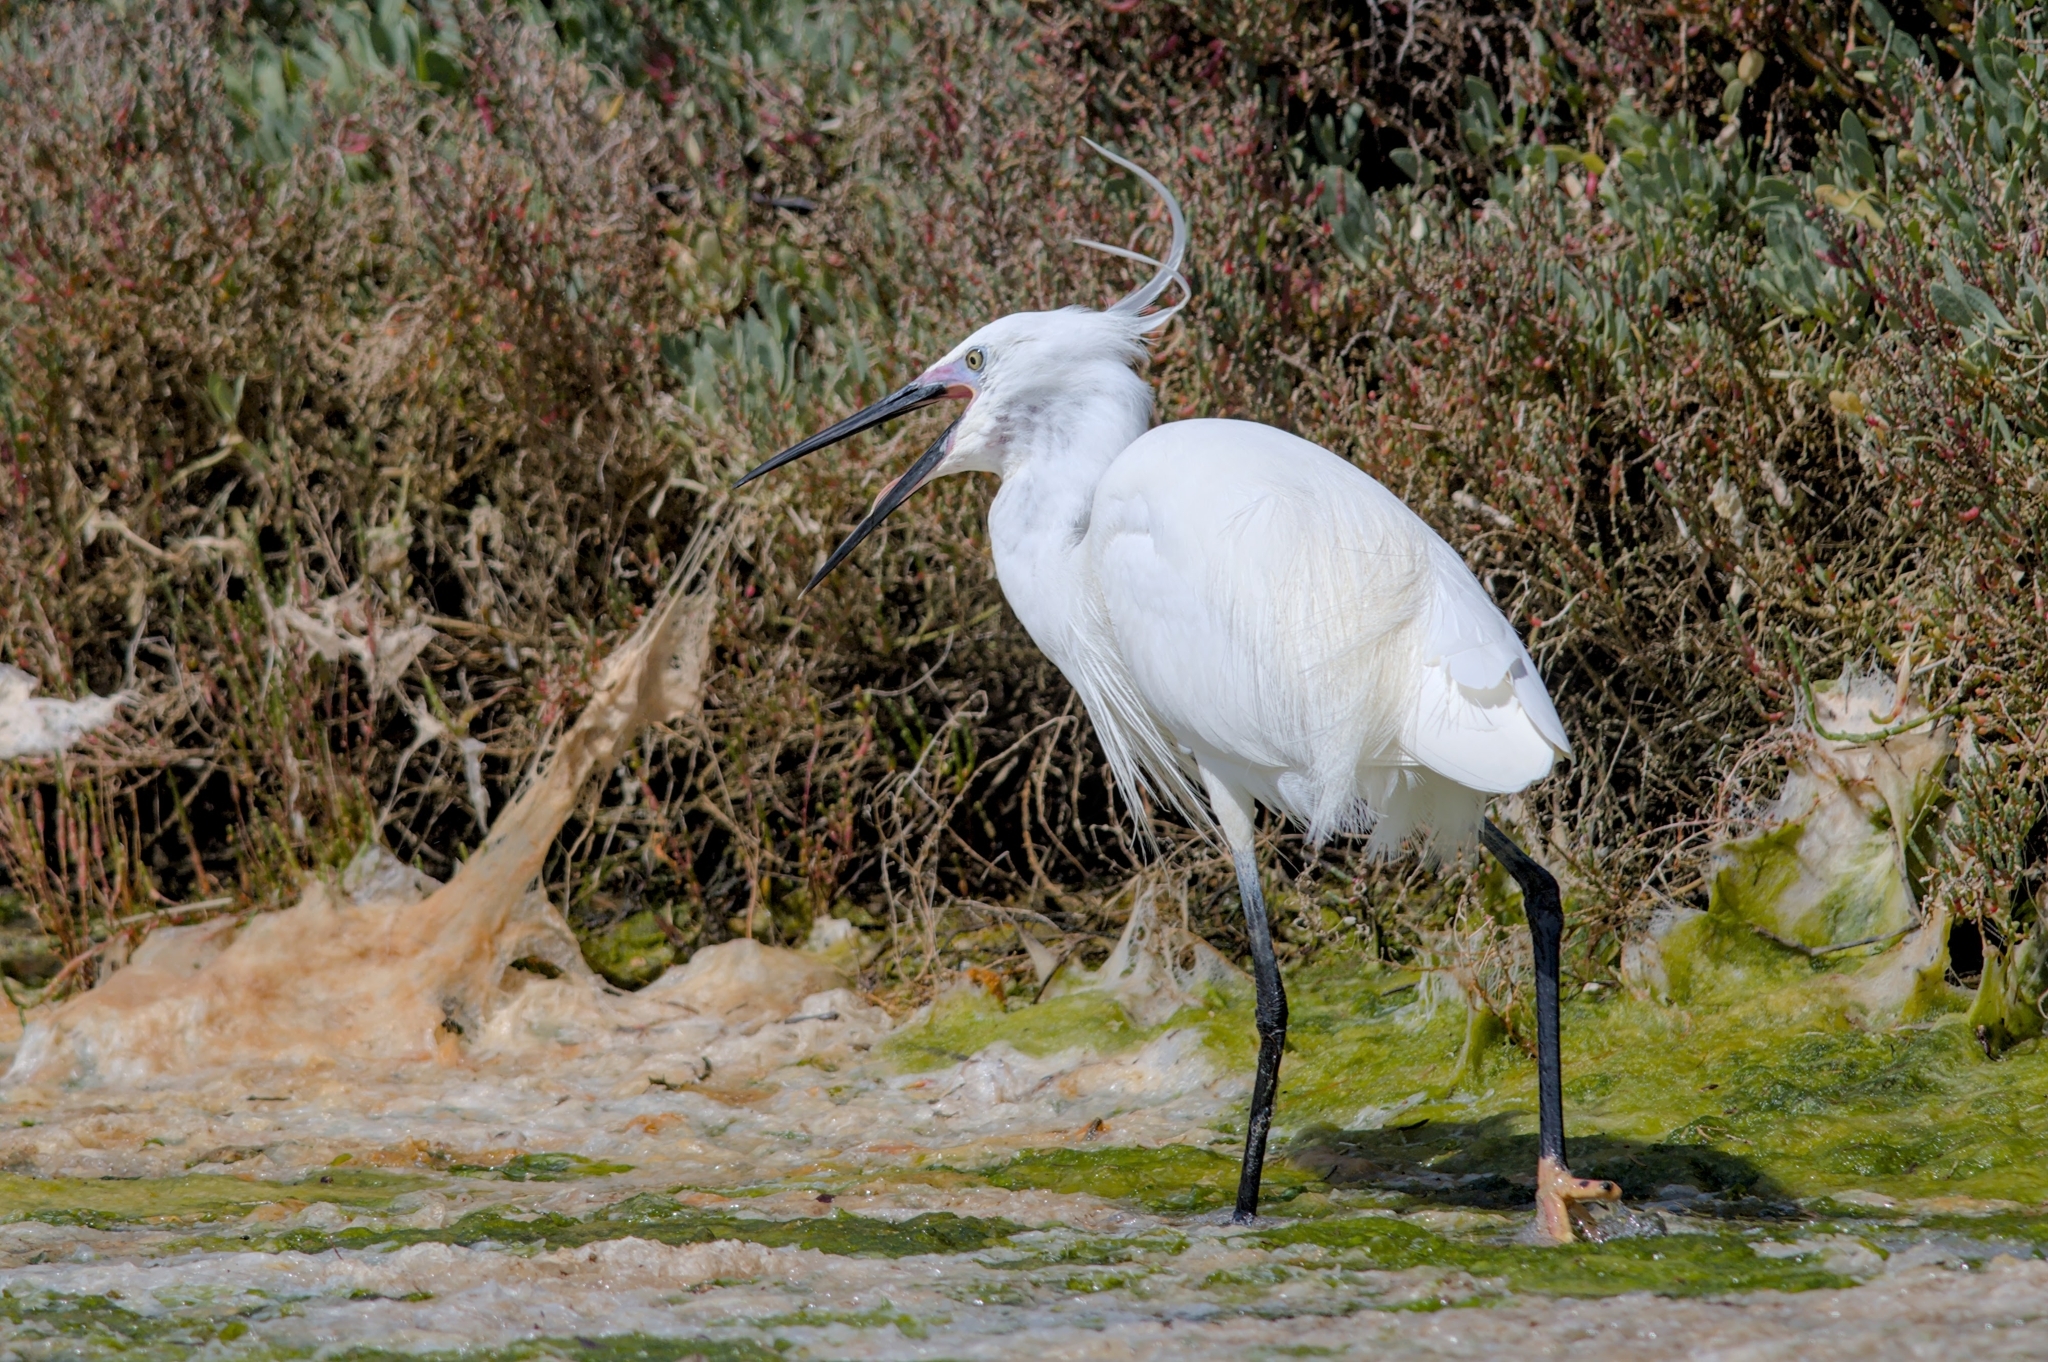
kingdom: Animalia
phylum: Chordata
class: Aves
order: Pelecaniformes
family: Ardeidae
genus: Egretta
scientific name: Egretta garzetta
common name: Little egret
